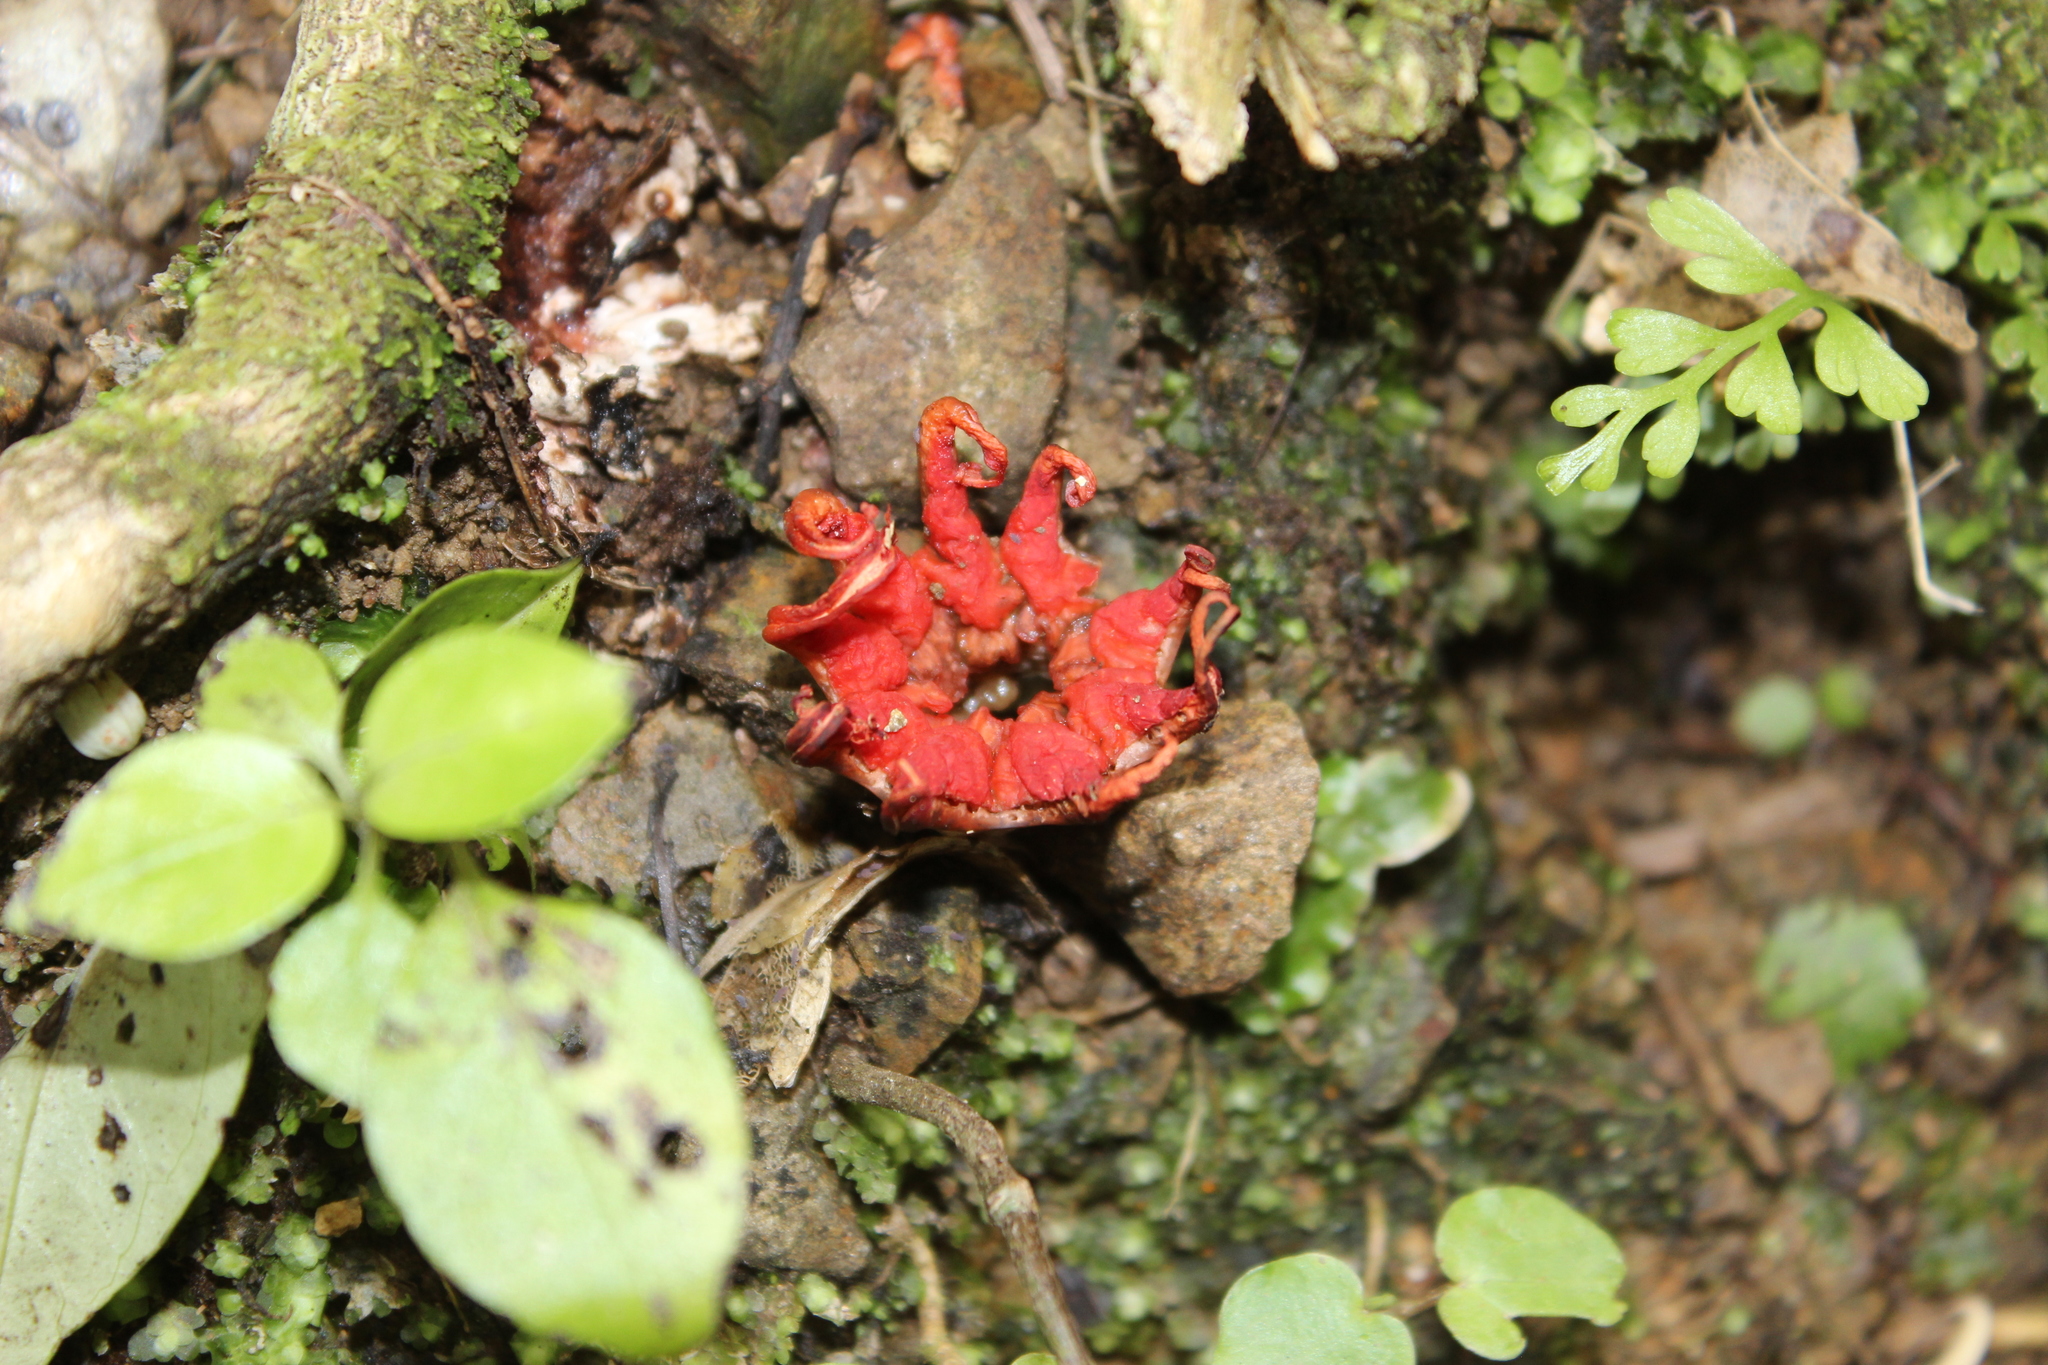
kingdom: Fungi
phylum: Basidiomycota
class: Agaricomycetes
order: Phallales
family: Phallaceae
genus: Aseroe
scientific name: Aseroe rubra
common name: Starfish fungus
